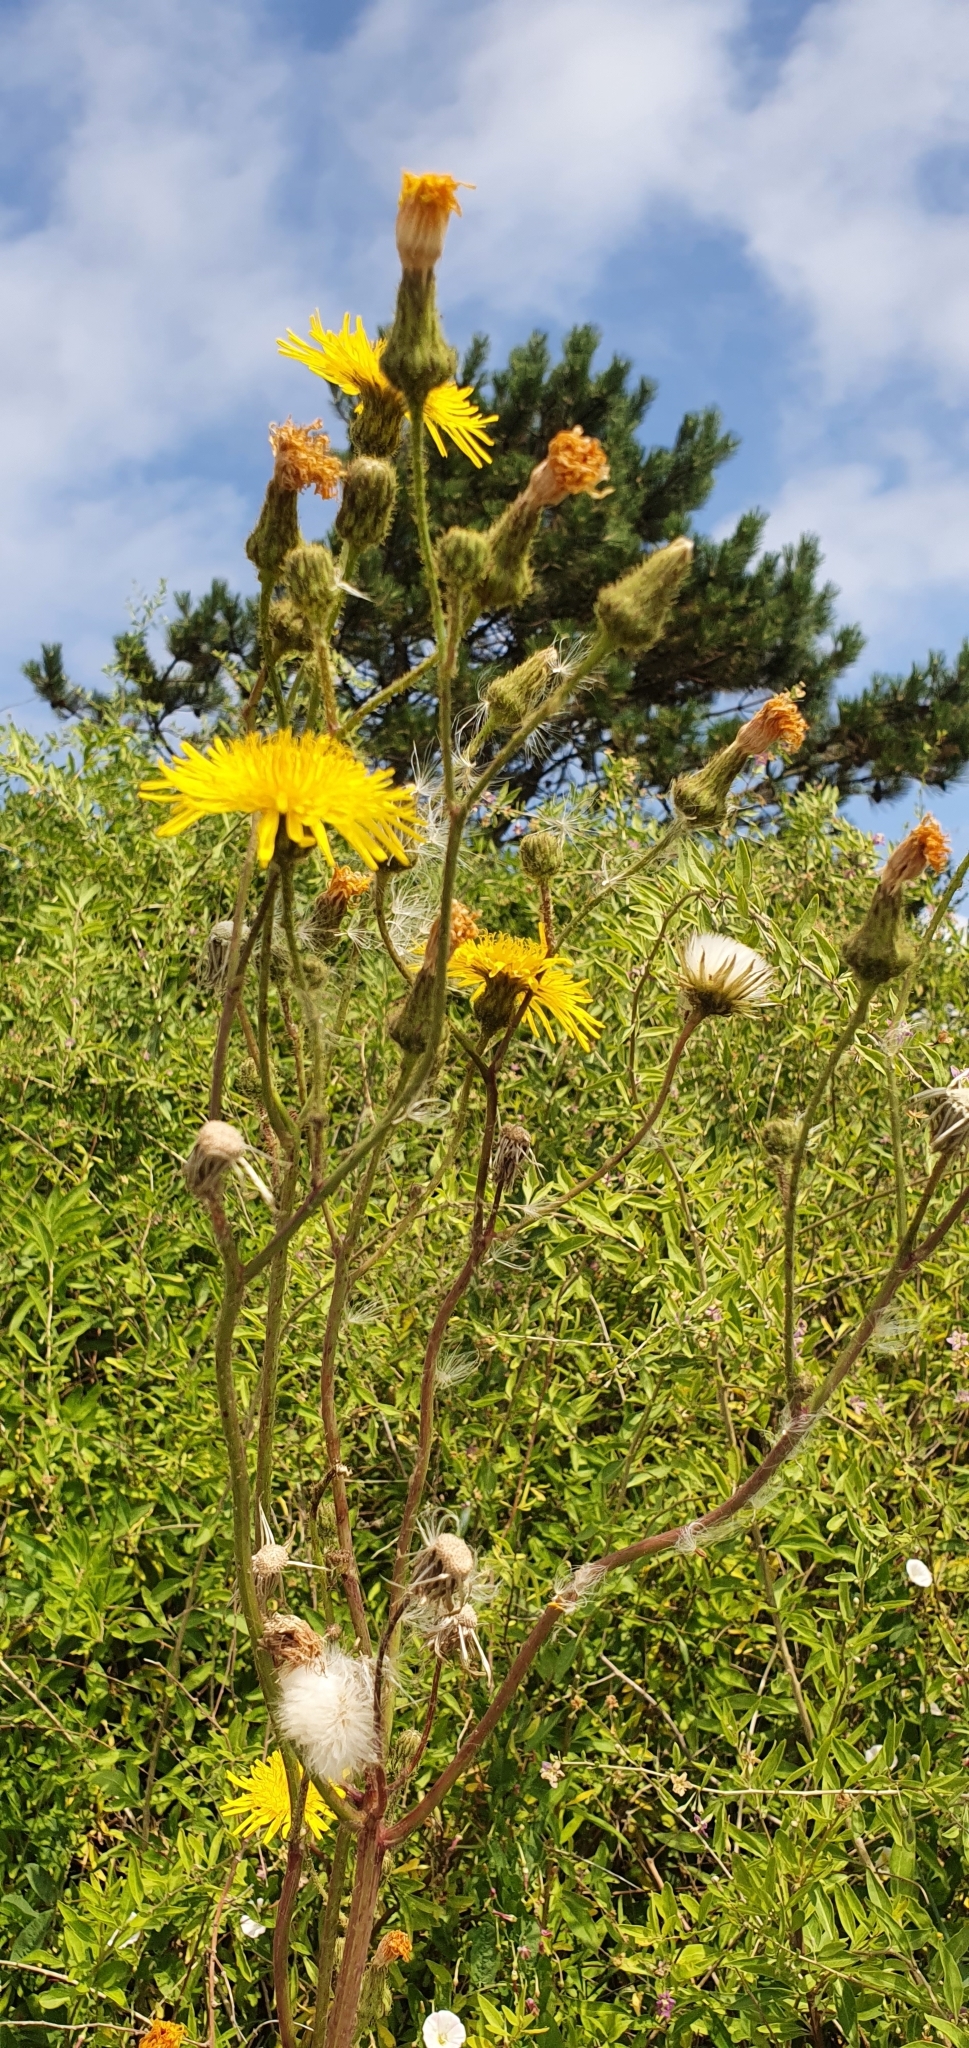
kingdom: Plantae
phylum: Tracheophyta
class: Magnoliopsida
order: Asterales
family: Asteraceae
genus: Sonchus
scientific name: Sonchus arvensis
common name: Perennial sow-thistle
